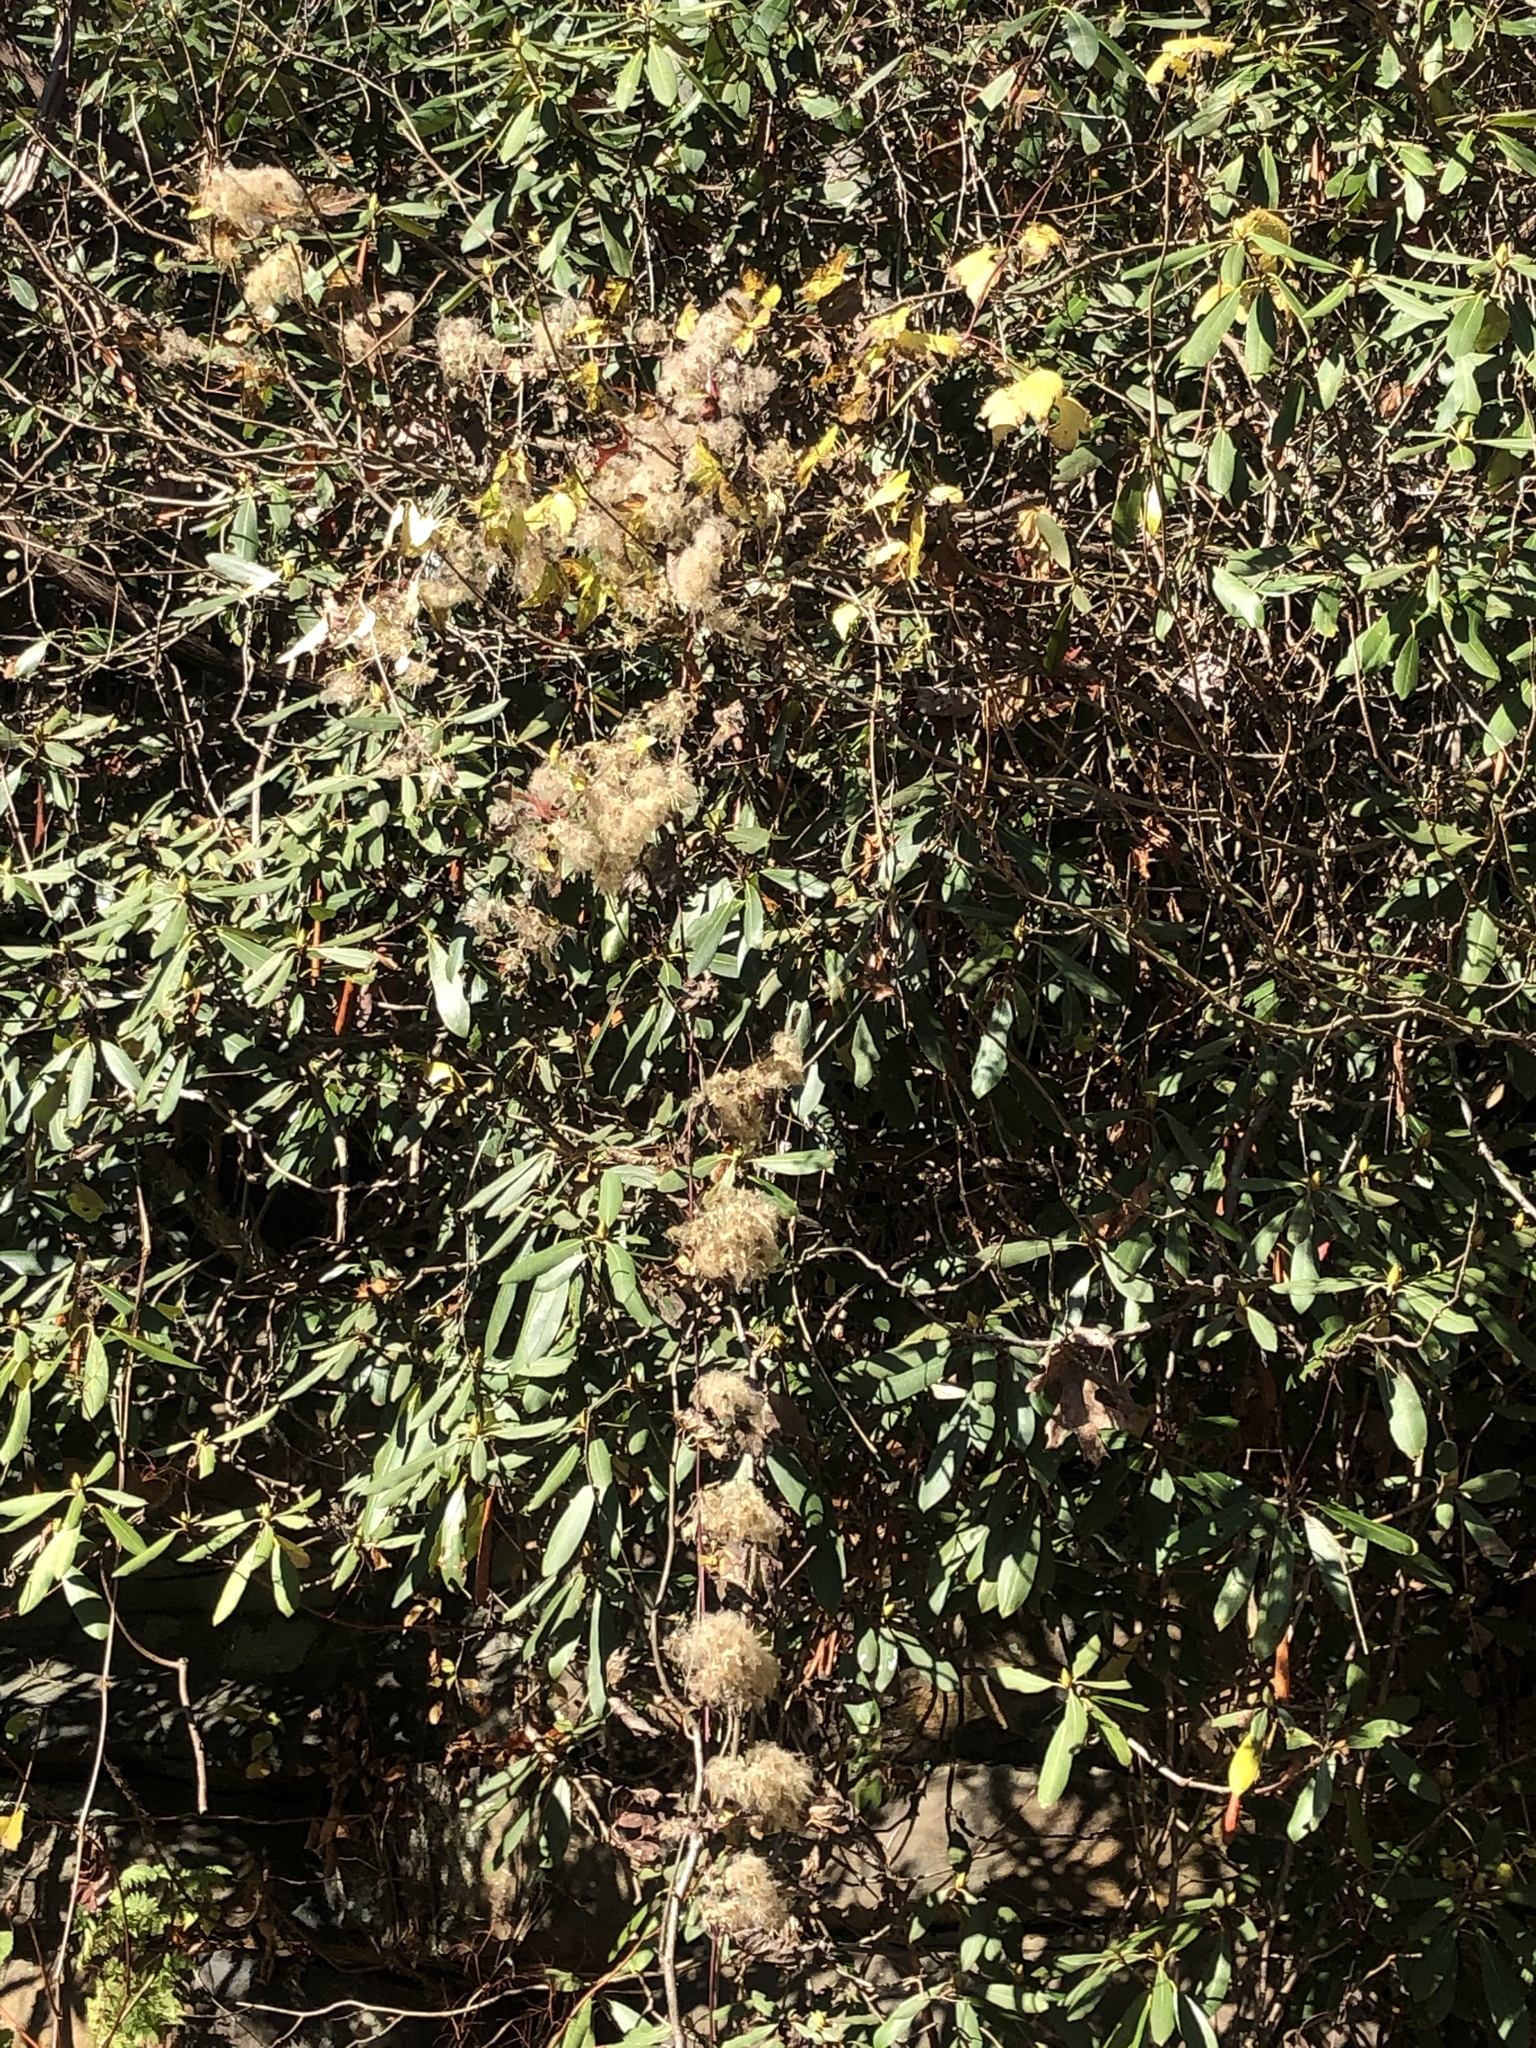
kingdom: Plantae
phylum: Tracheophyta
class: Magnoliopsida
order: Ranunculales
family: Ranunculaceae
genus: Clematis
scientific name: Clematis virginiana
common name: Virgin's-bower
